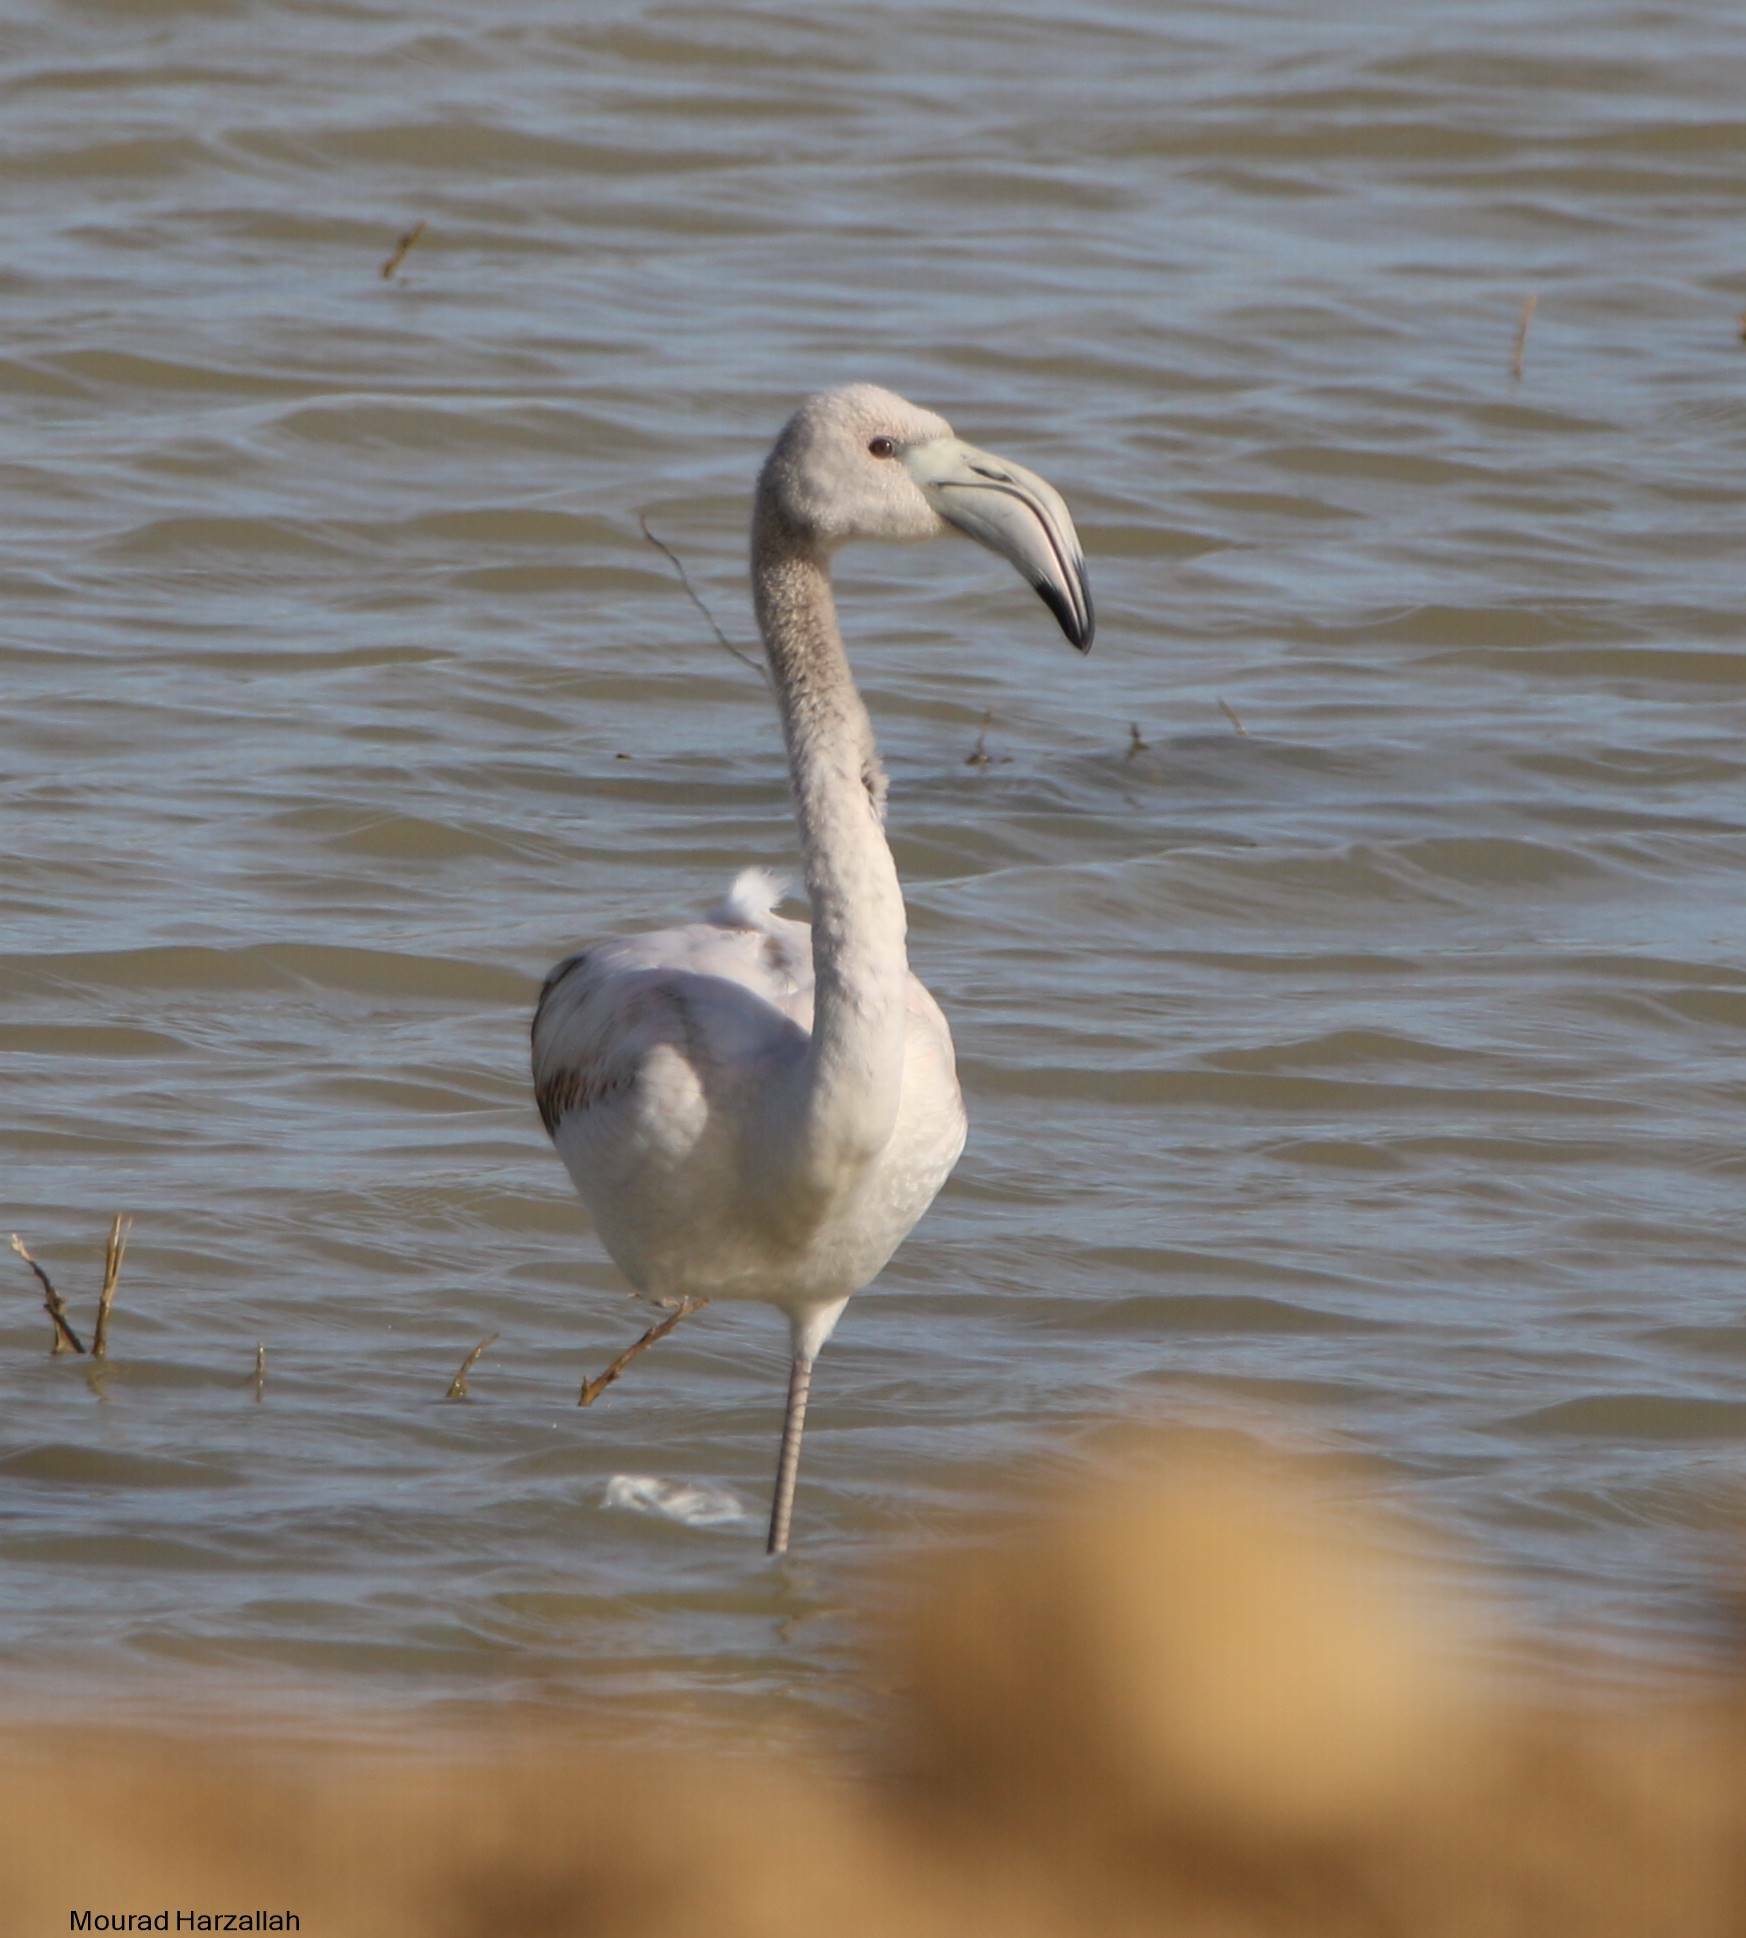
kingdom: Animalia
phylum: Chordata
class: Aves
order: Phoenicopteriformes
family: Phoenicopteridae
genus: Phoenicopterus
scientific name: Phoenicopterus roseus
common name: Greater flamingo
